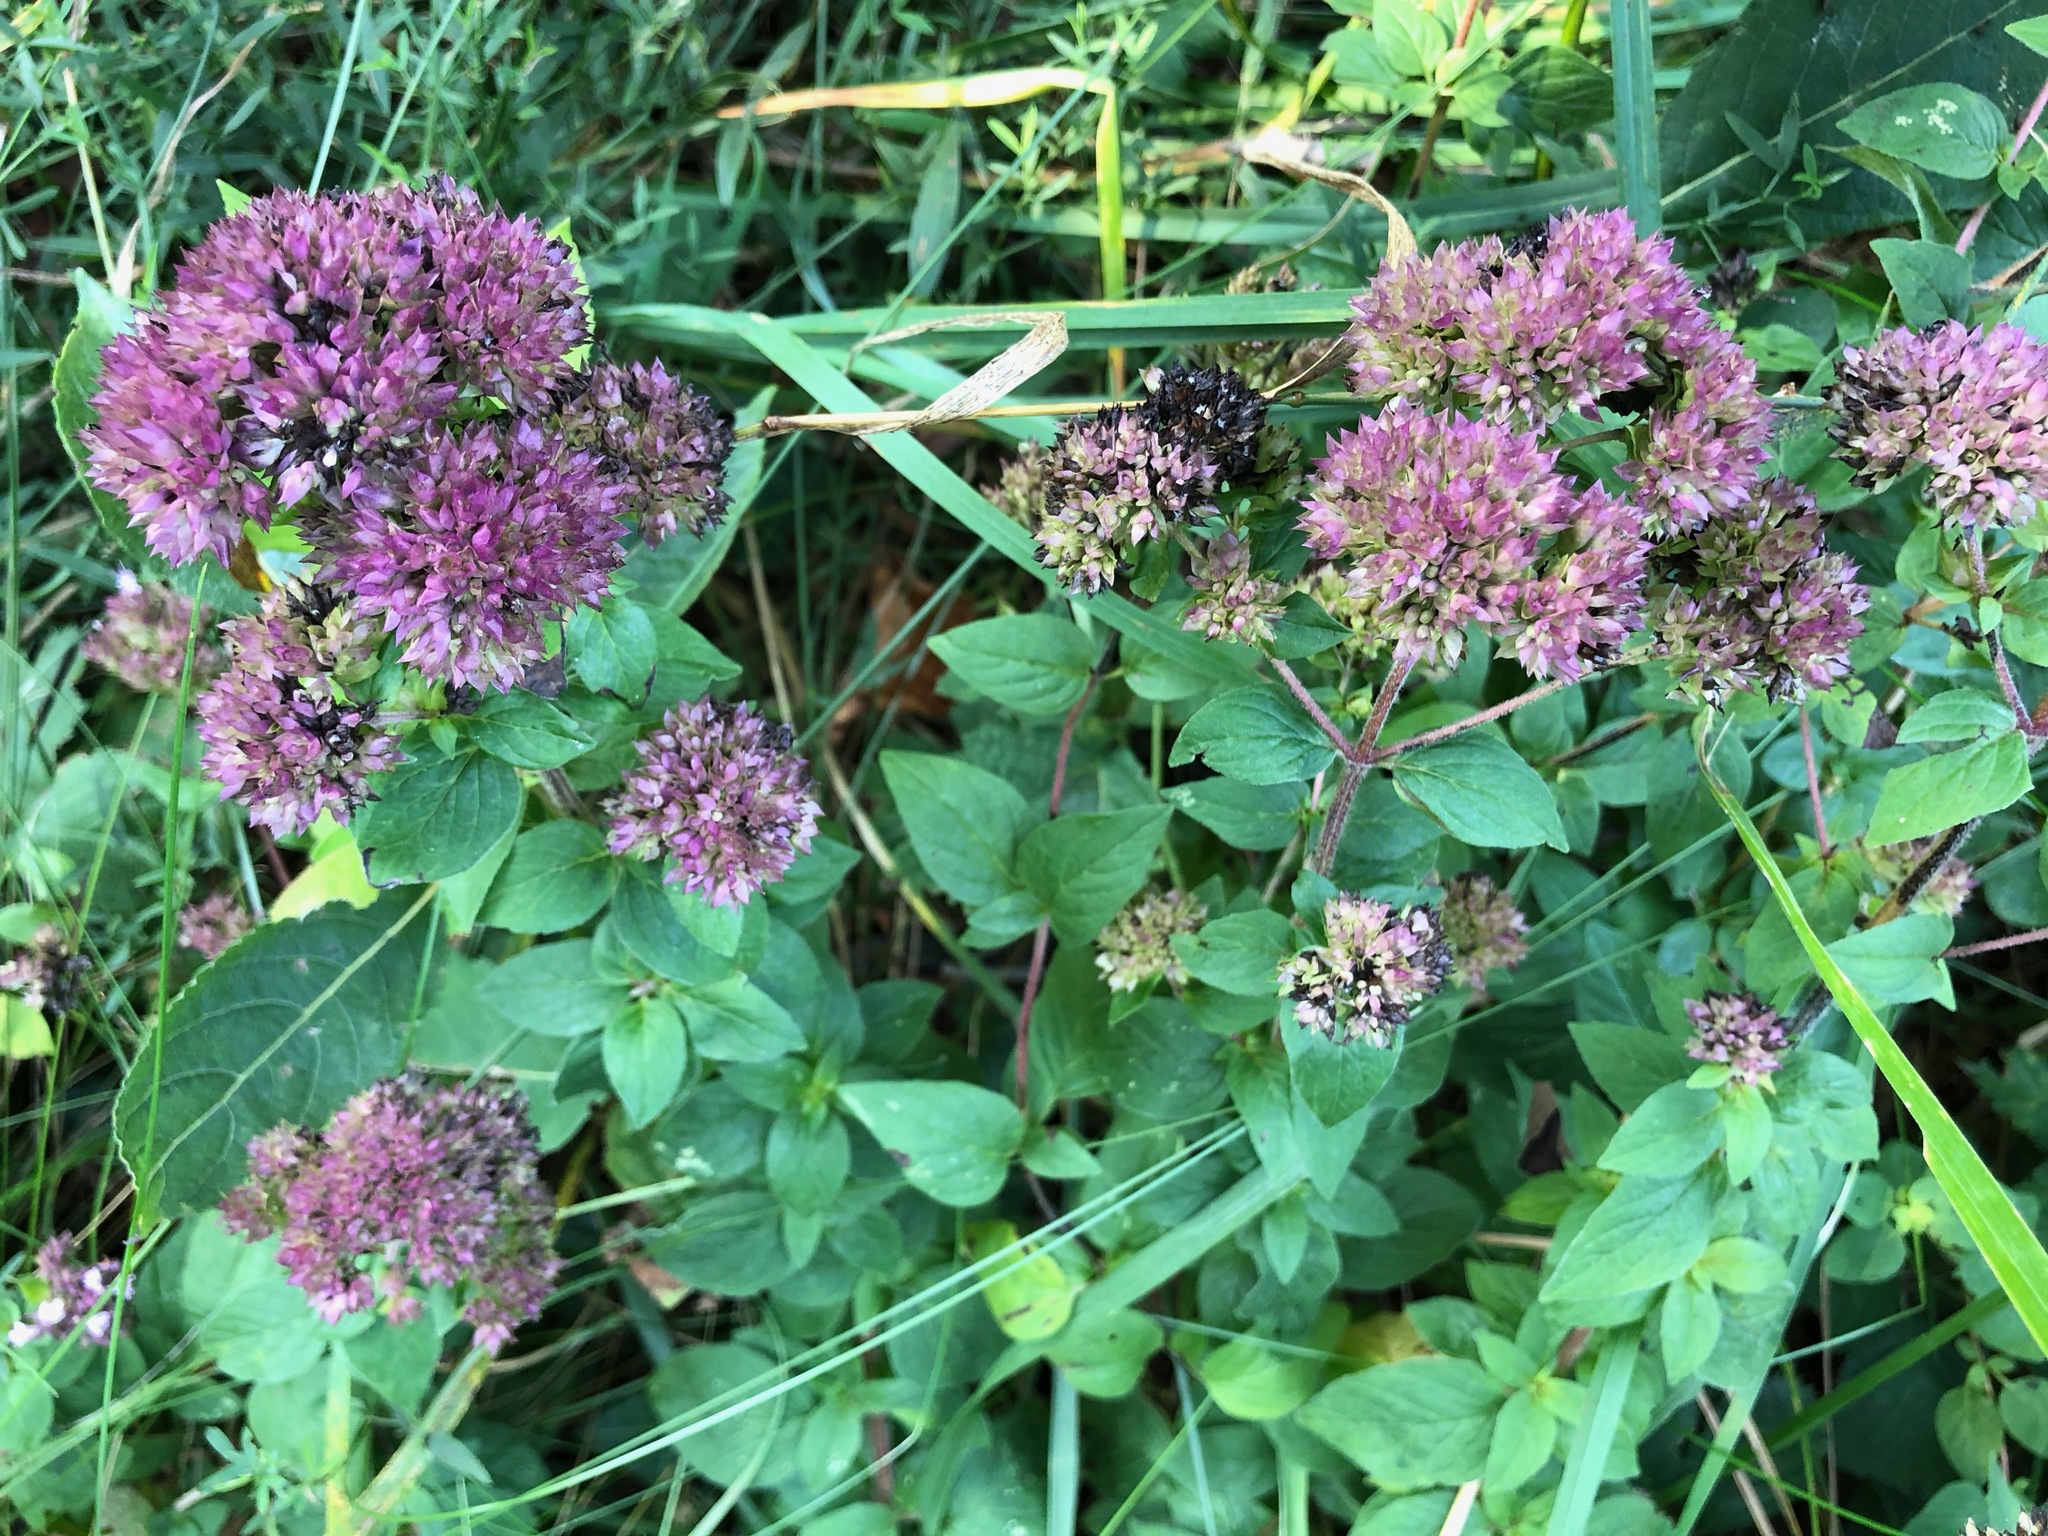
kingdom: Plantae
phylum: Tracheophyta
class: Magnoliopsida
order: Lamiales
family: Lamiaceae
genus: Origanum
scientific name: Origanum vulgare
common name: Wild marjoram
